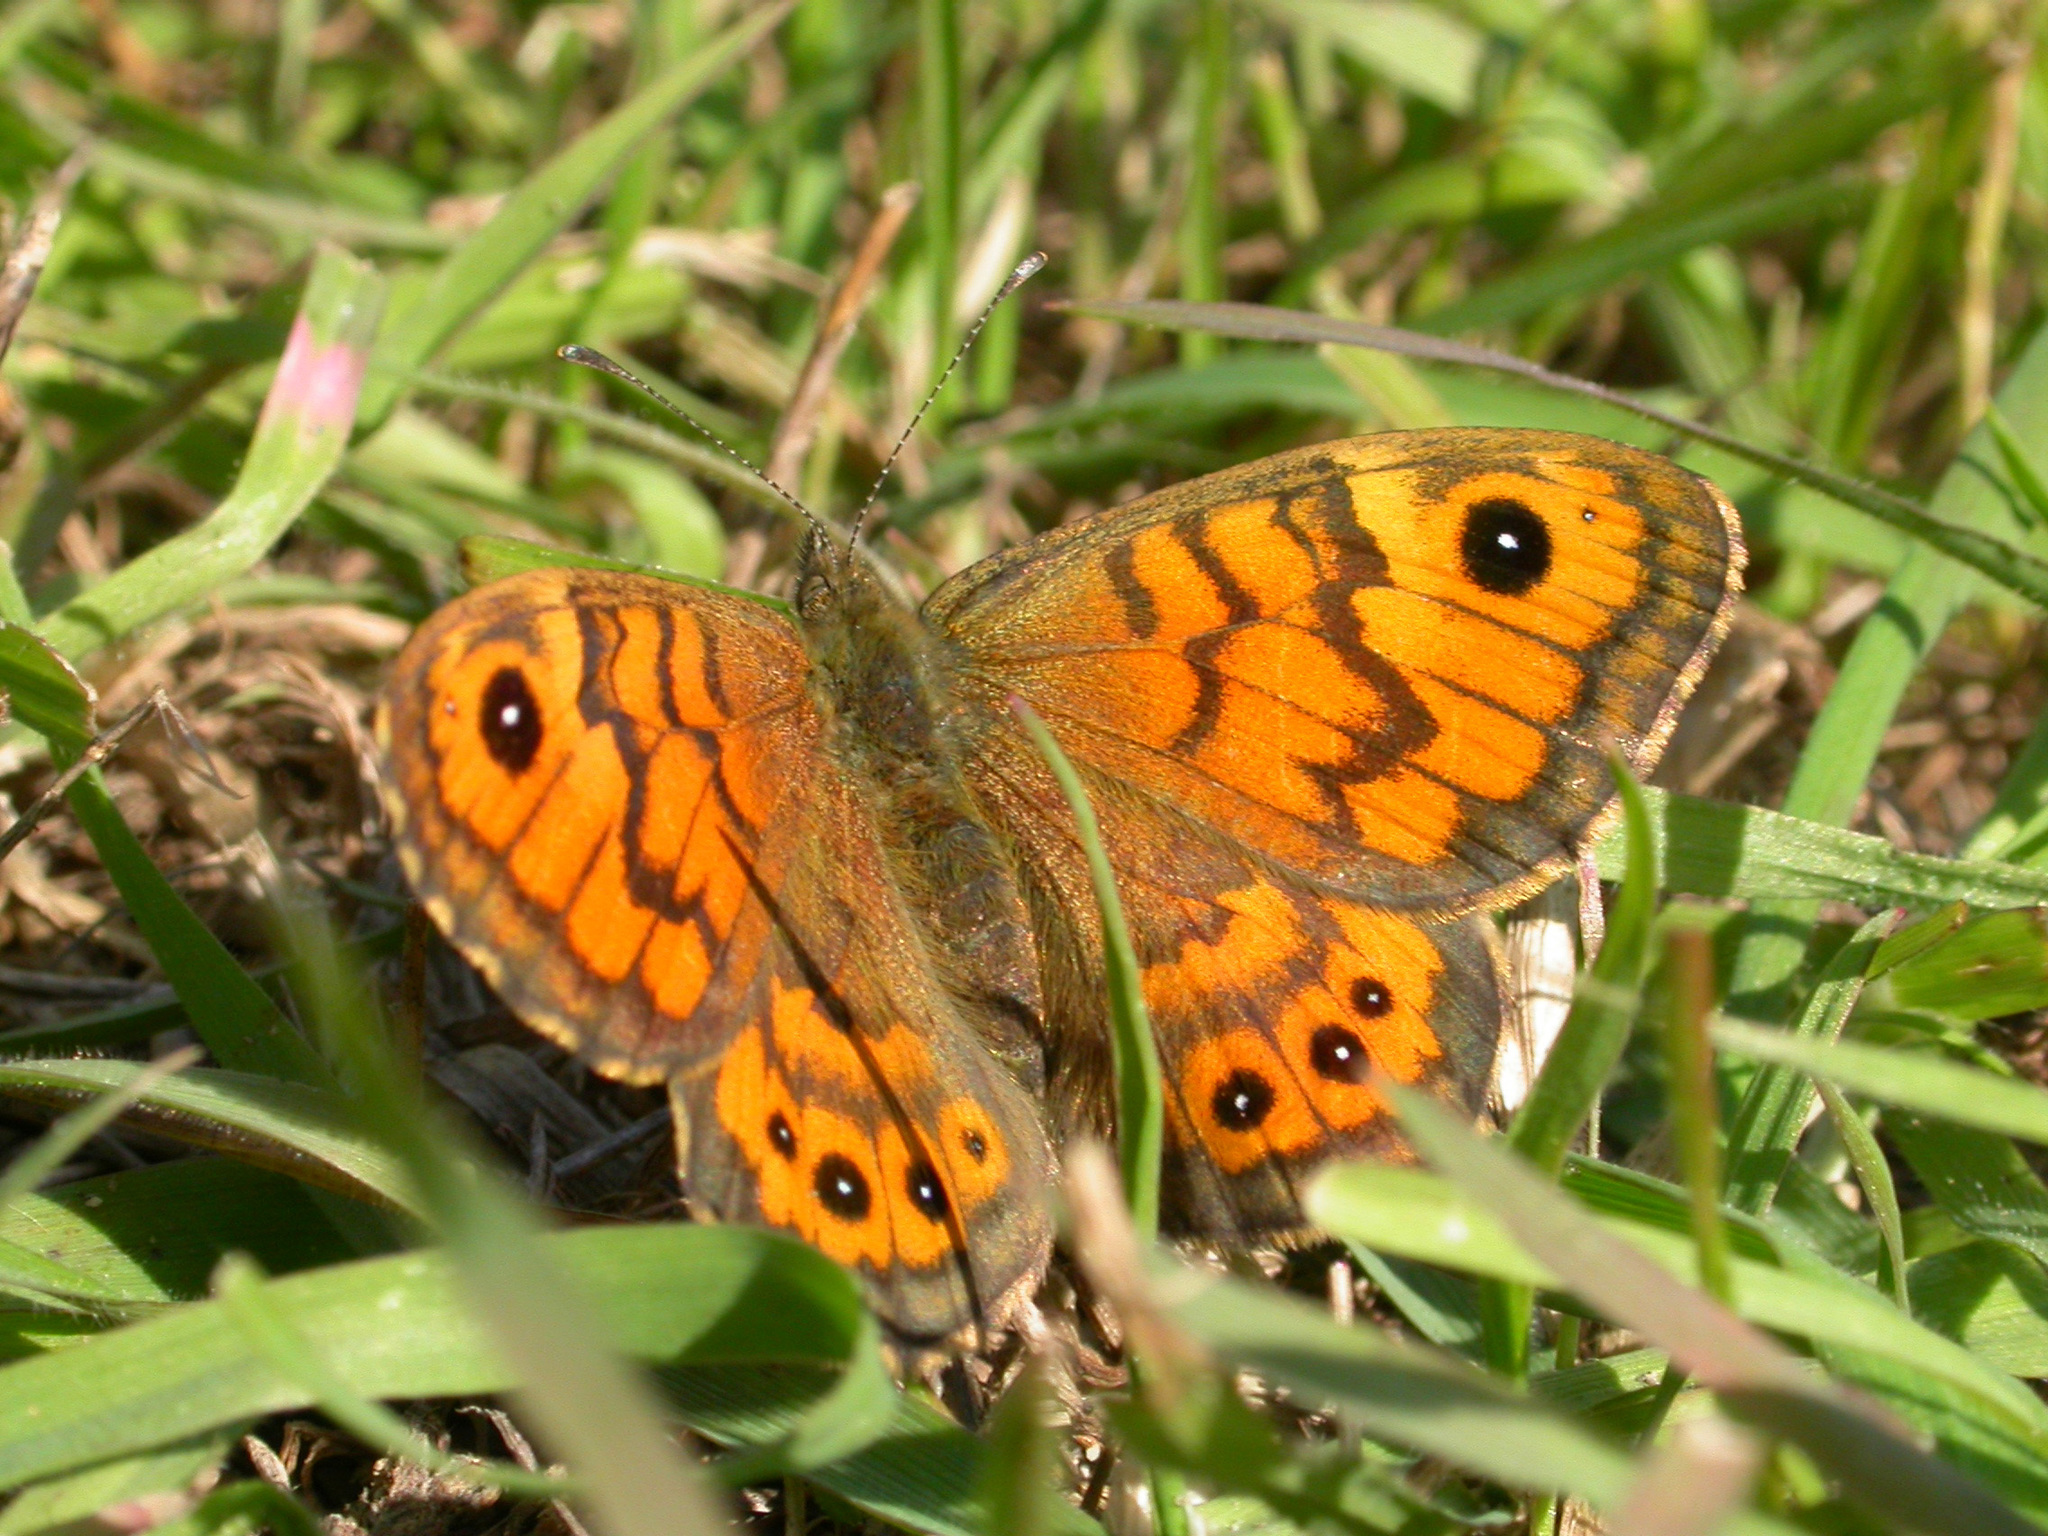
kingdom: Animalia
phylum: Arthropoda
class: Insecta
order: Lepidoptera
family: Nymphalidae
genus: Pararge
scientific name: Pararge Lasiommata megera
